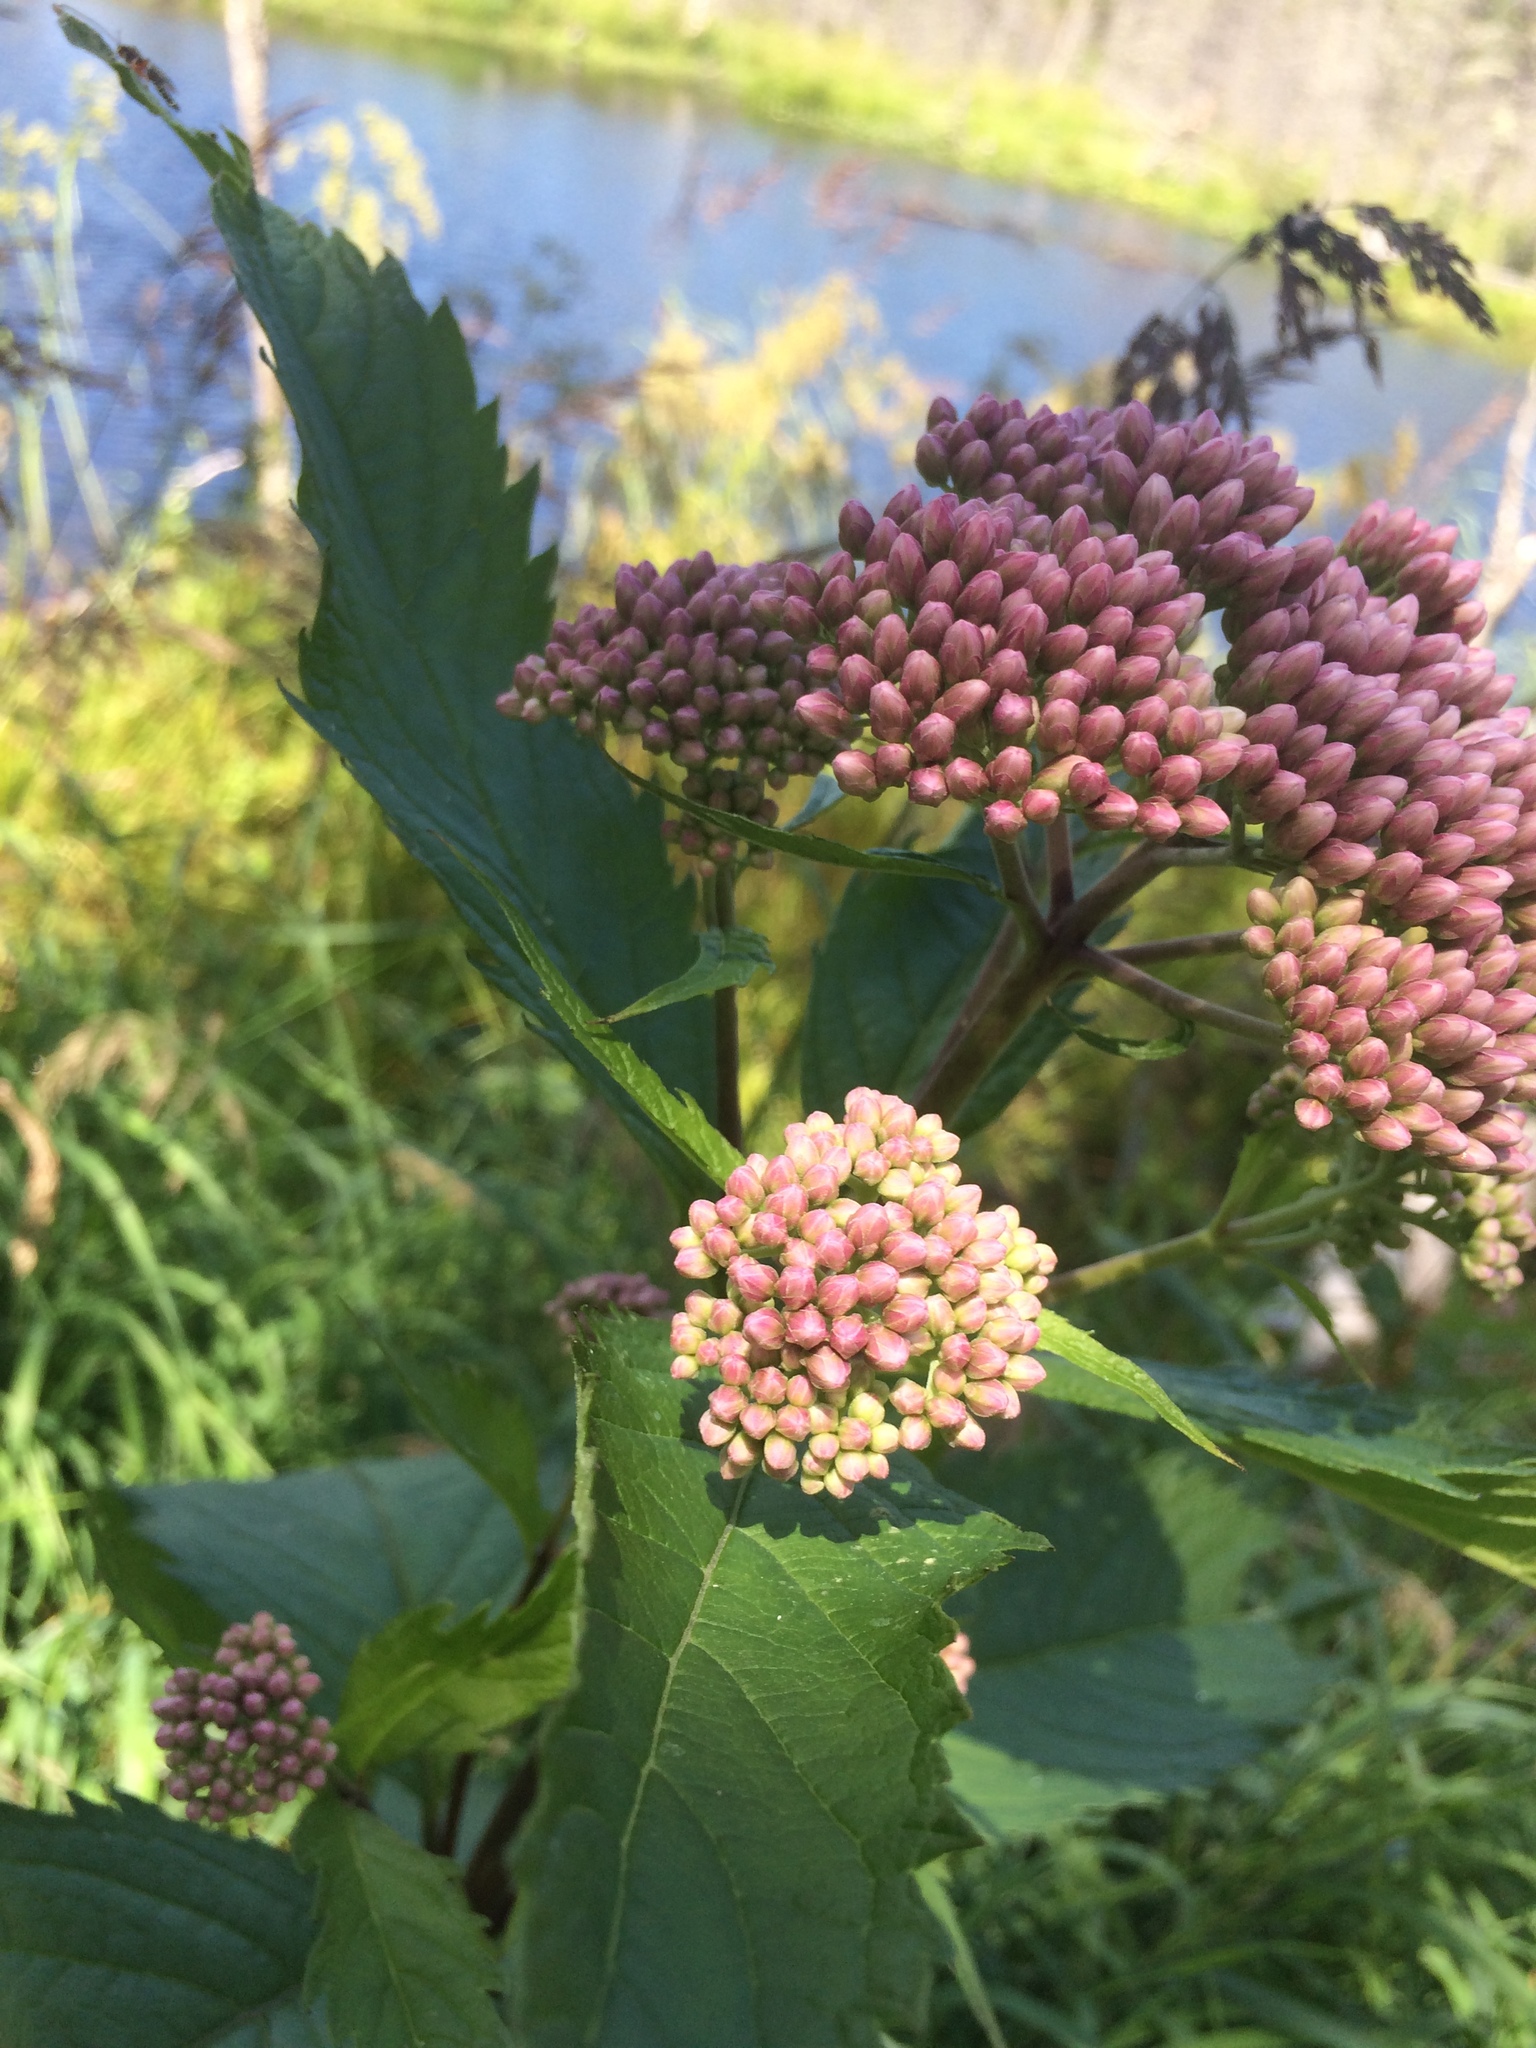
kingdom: Plantae
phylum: Tracheophyta
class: Magnoliopsida
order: Asterales
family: Asteraceae
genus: Eutrochium
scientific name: Eutrochium maculatum
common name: Spotted joe pye weed
